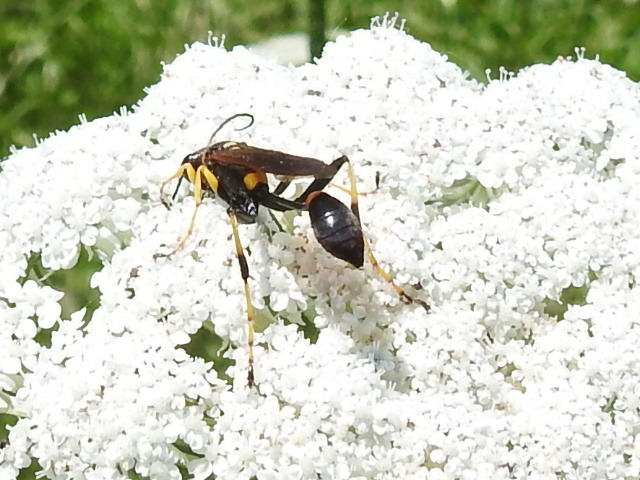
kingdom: Animalia
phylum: Arthropoda
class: Insecta
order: Hymenoptera
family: Sphecidae
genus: Sceliphron
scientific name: Sceliphron caementarium
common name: Mud dauber
